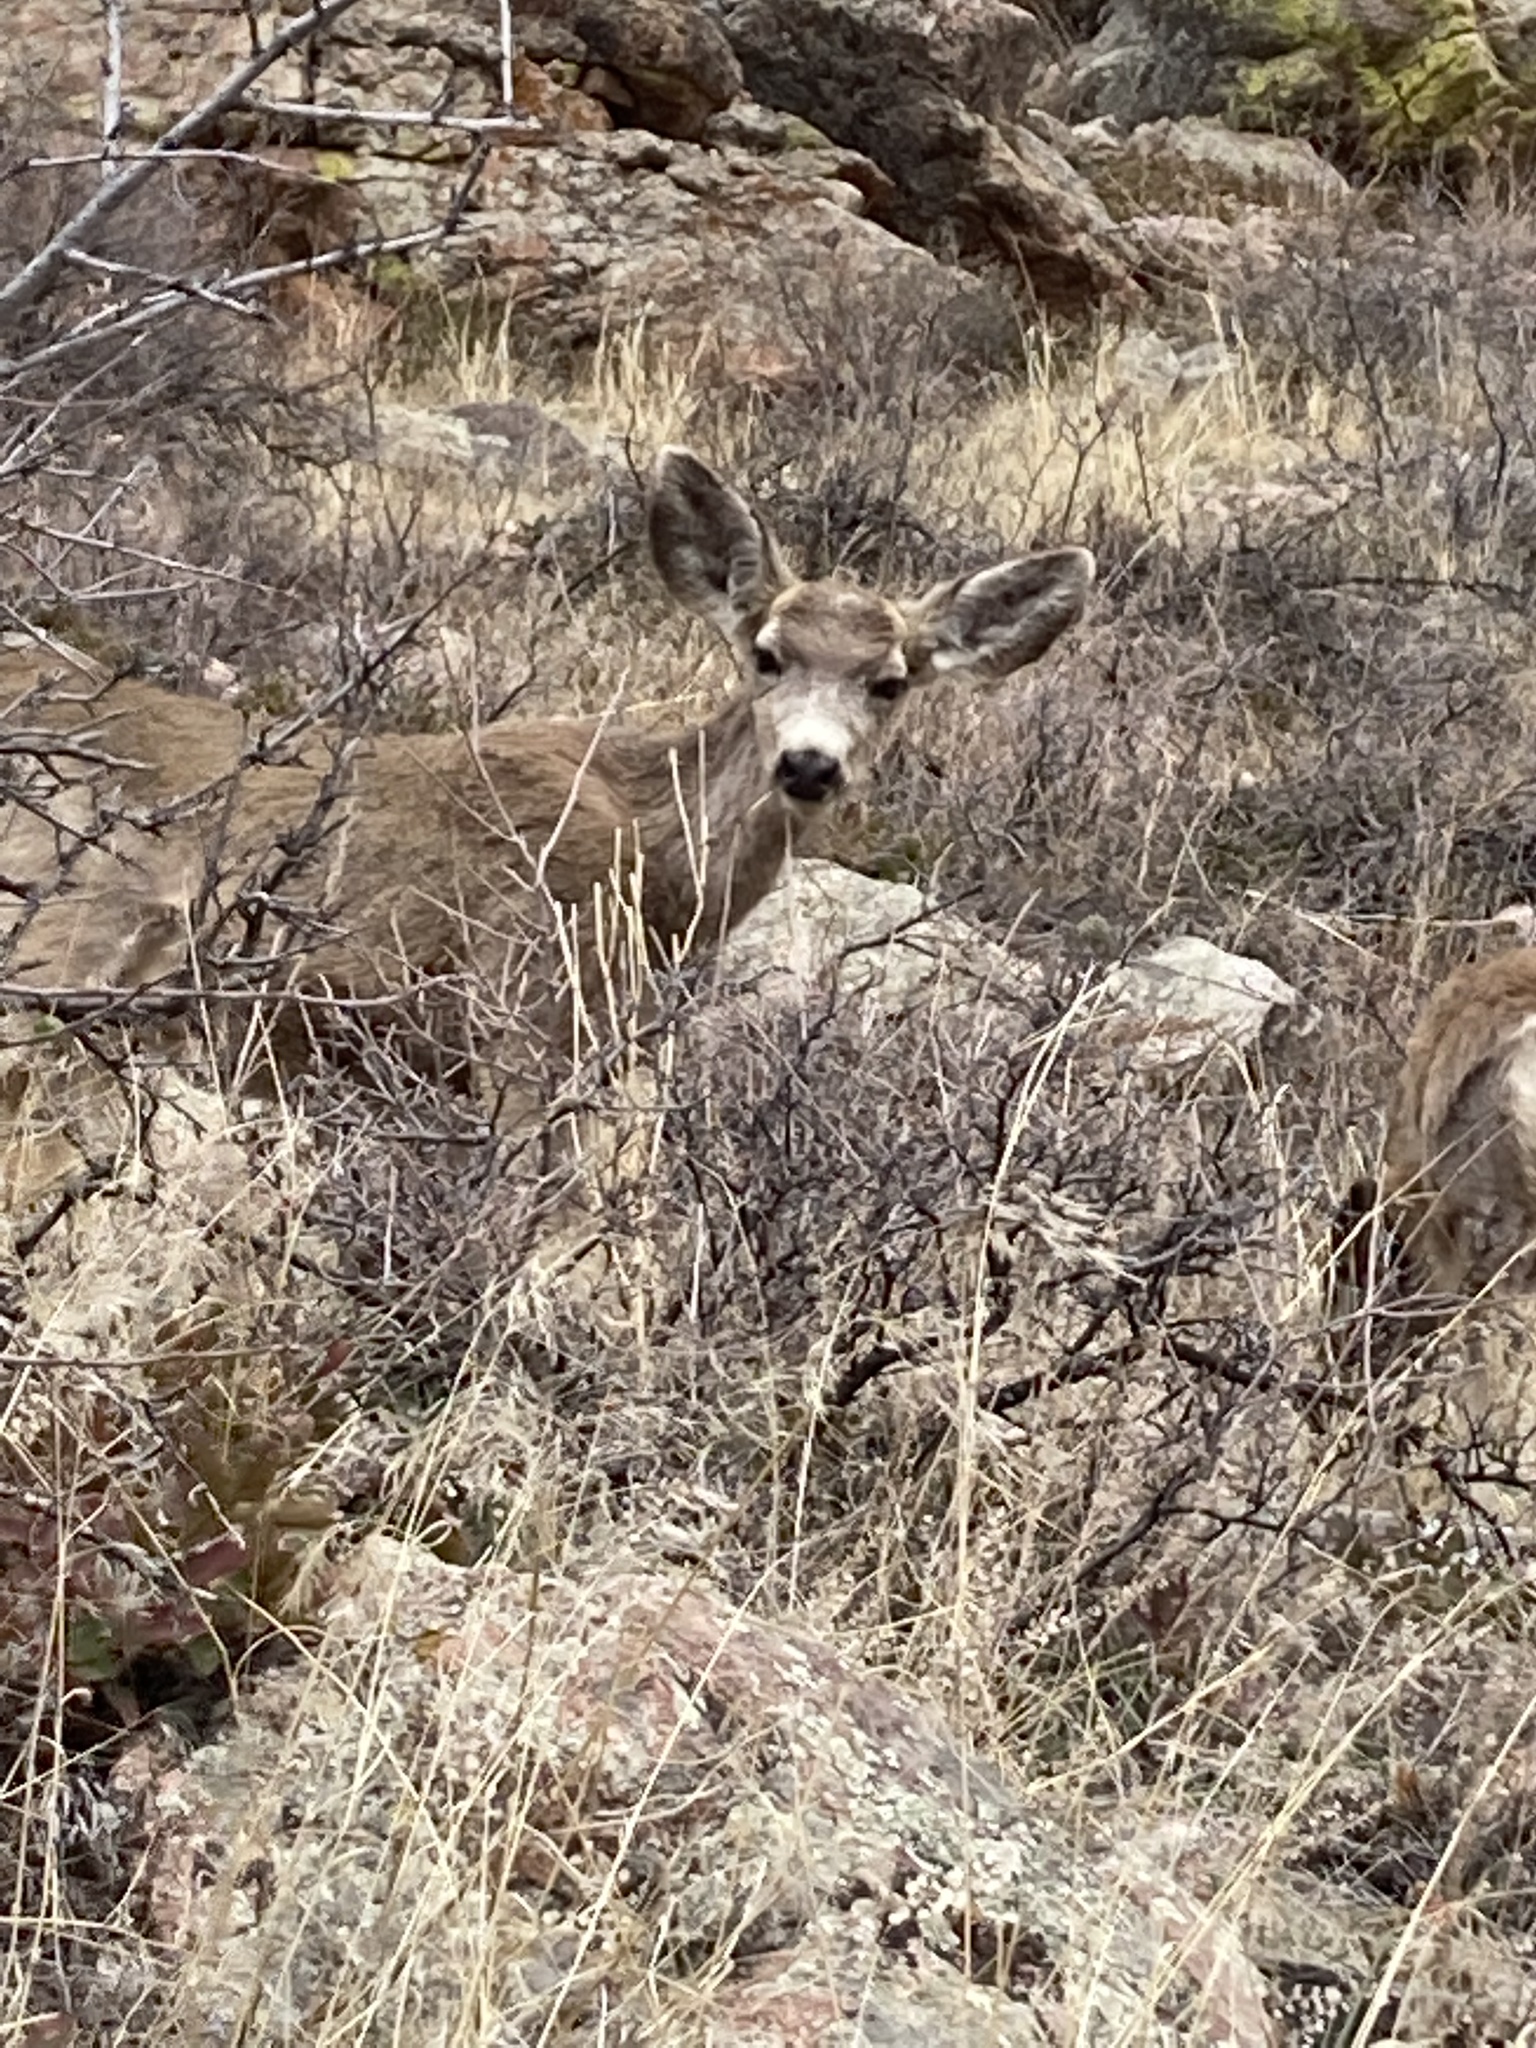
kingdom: Animalia
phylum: Chordata
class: Mammalia
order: Artiodactyla
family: Cervidae
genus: Odocoileus
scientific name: Odocoileus hemionus
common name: Mule deer
